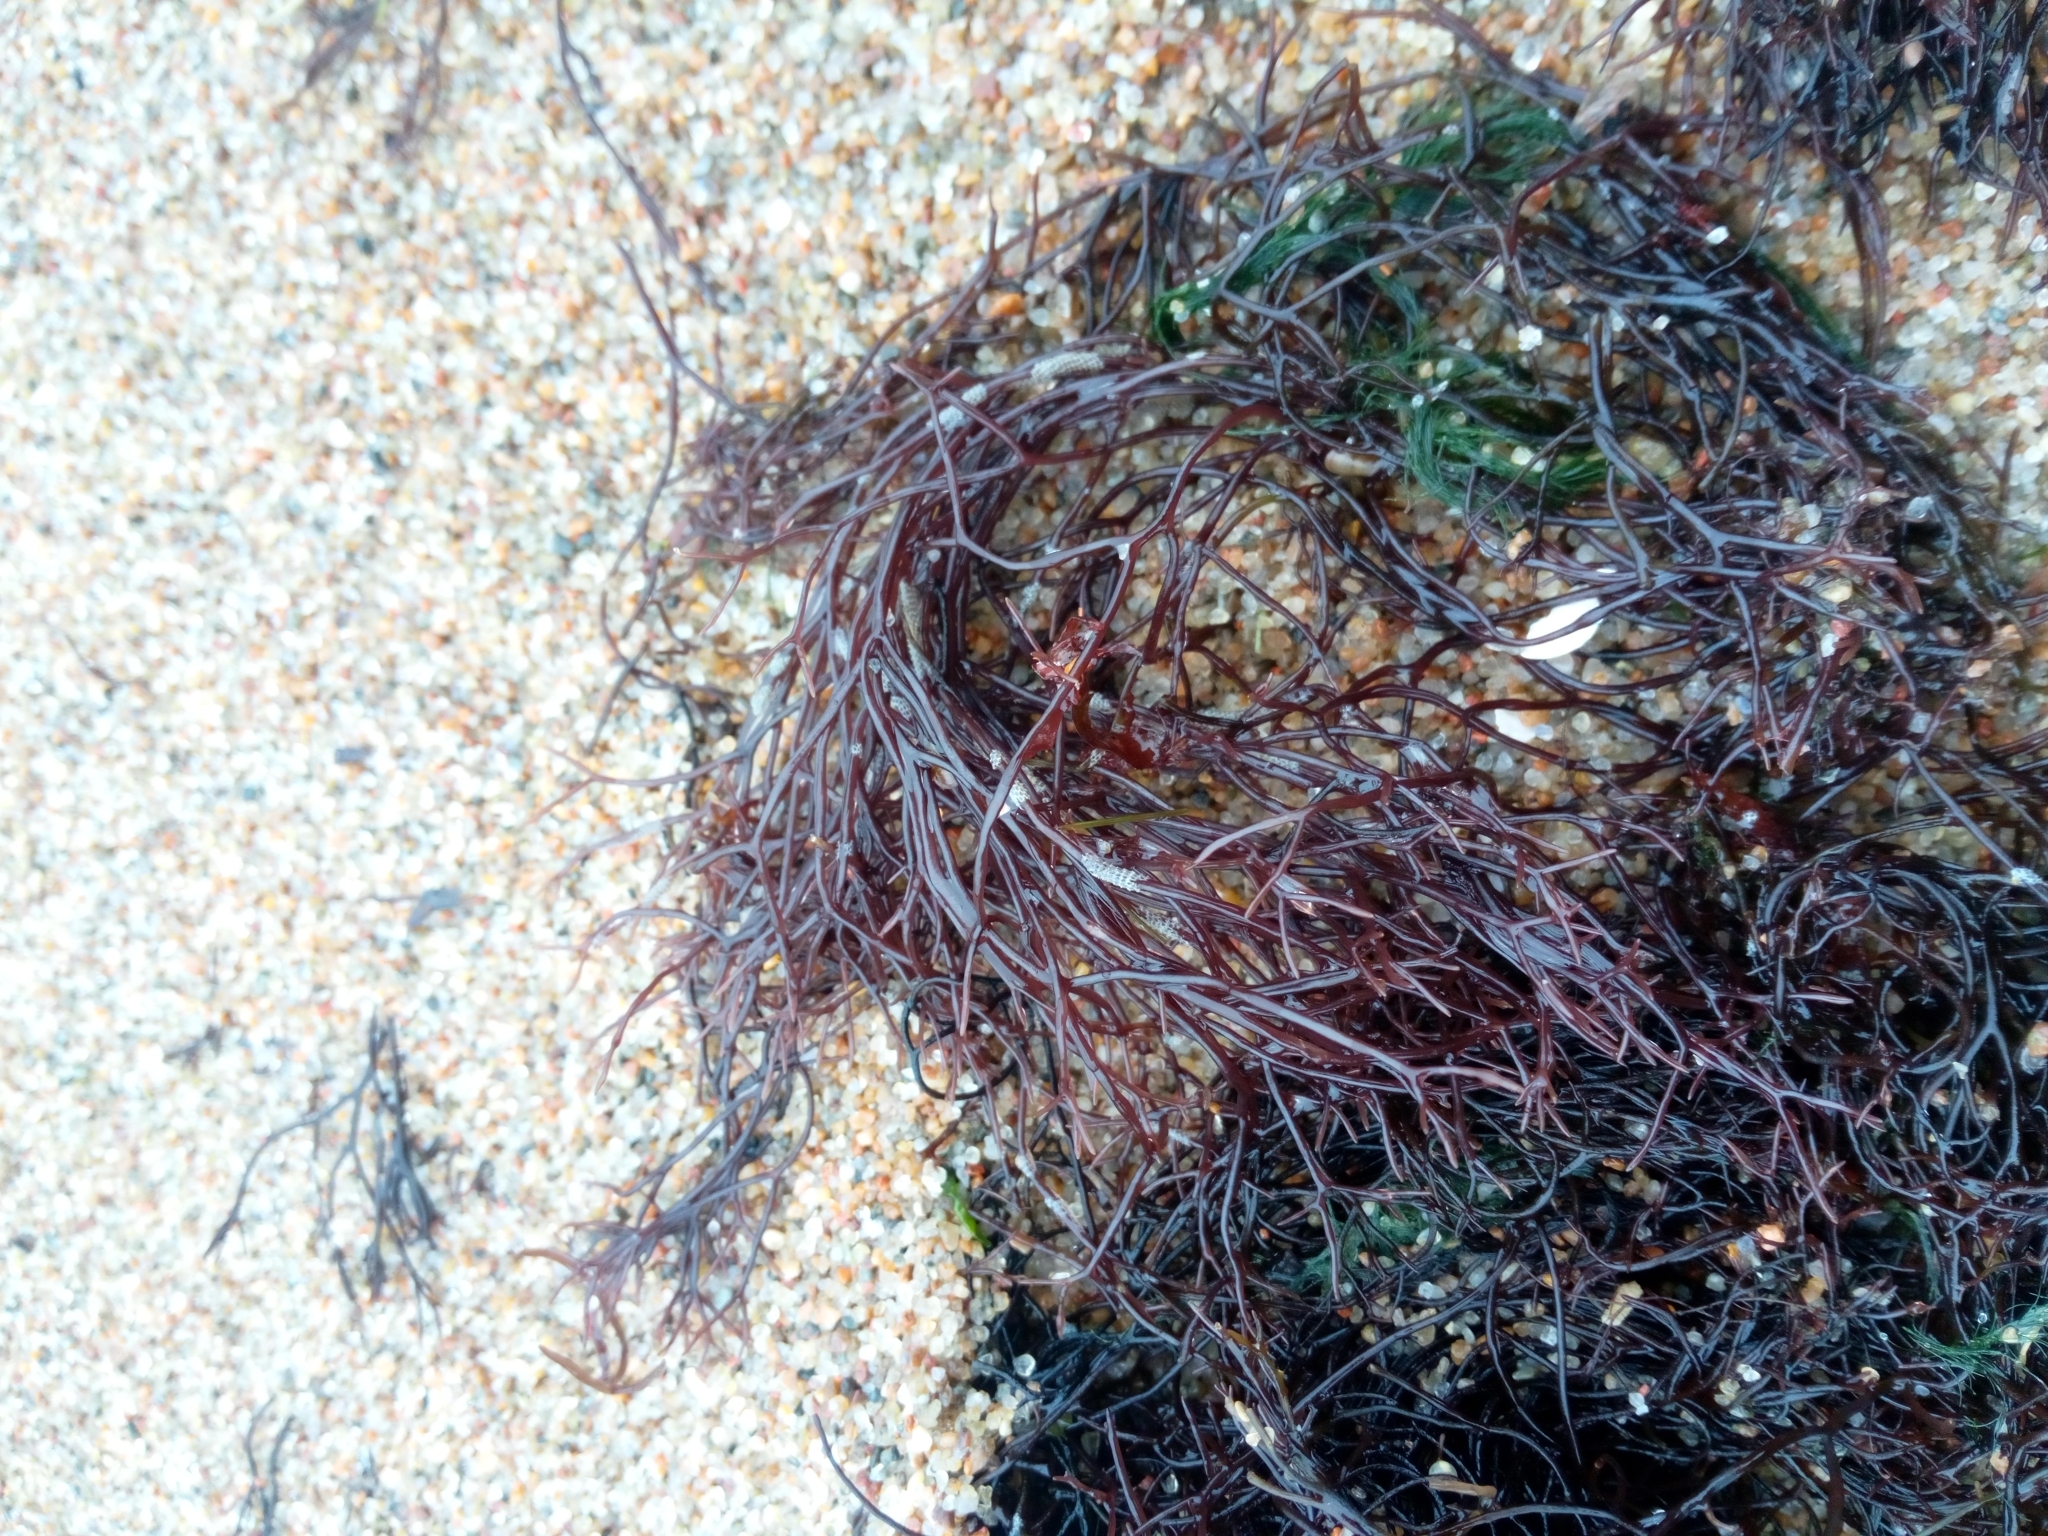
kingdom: Plantae
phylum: Rhodophyta
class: Florideophyceae
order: Gigartinales
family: Furcellariaceae
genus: Furcellaria
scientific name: Furcellaria lumbricalis
